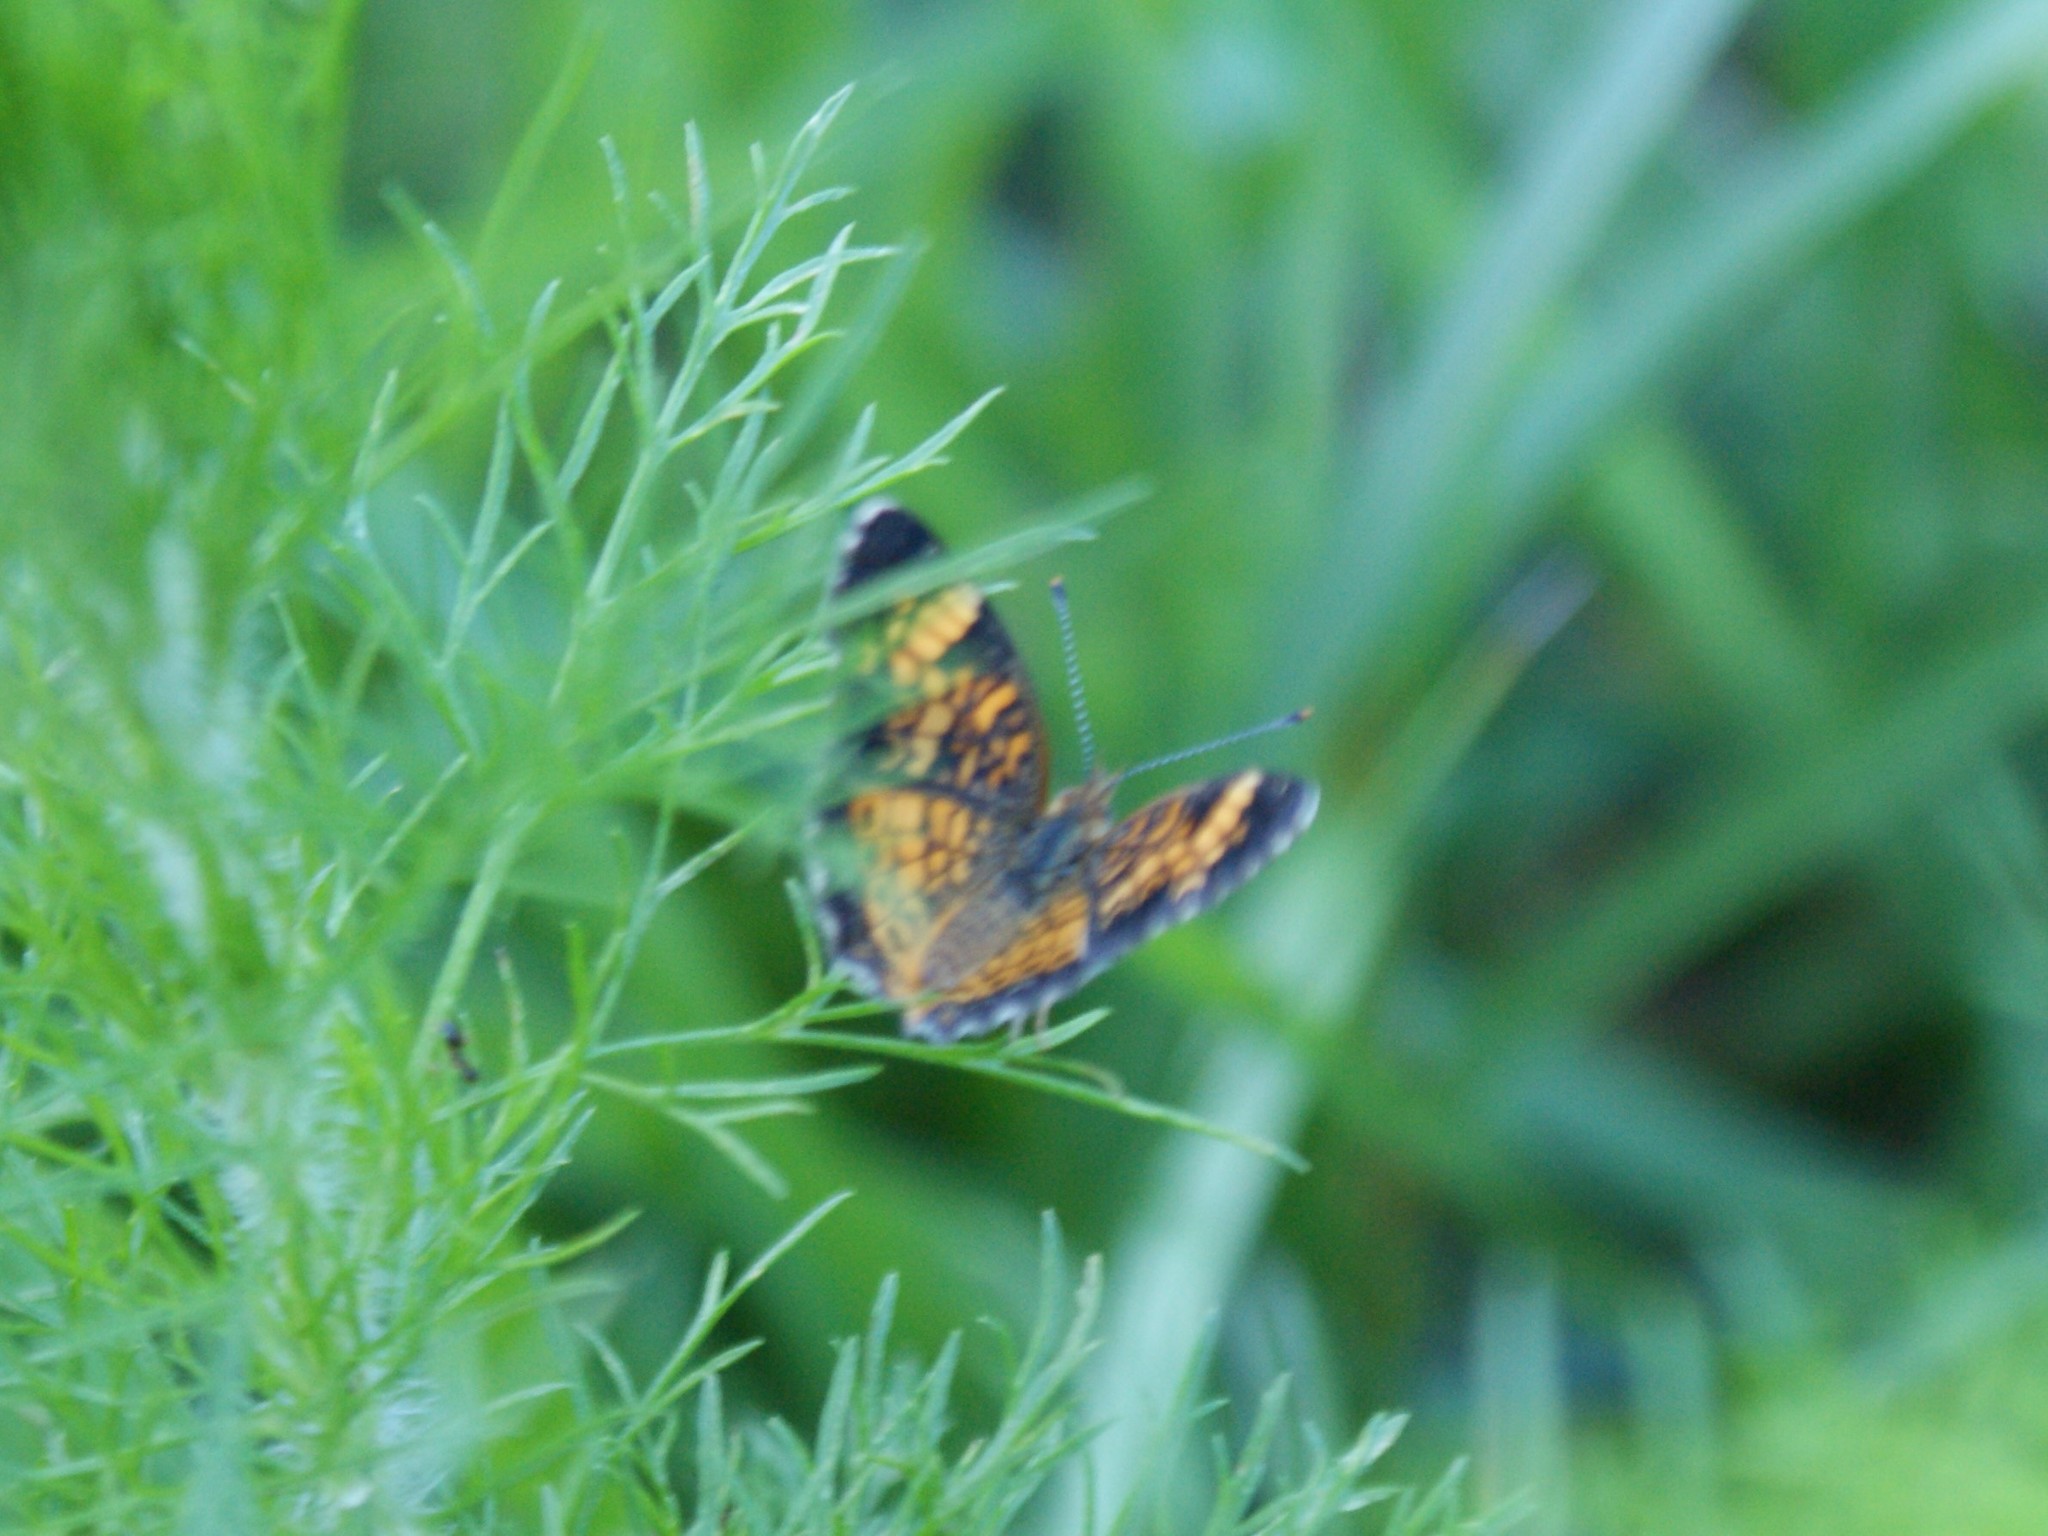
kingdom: Animalia
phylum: Arthropoda
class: Insecta
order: Lepidoptera
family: Nymphalidae
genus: Phyciodes
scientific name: Phyciodes tharos
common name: Pearl crescent
